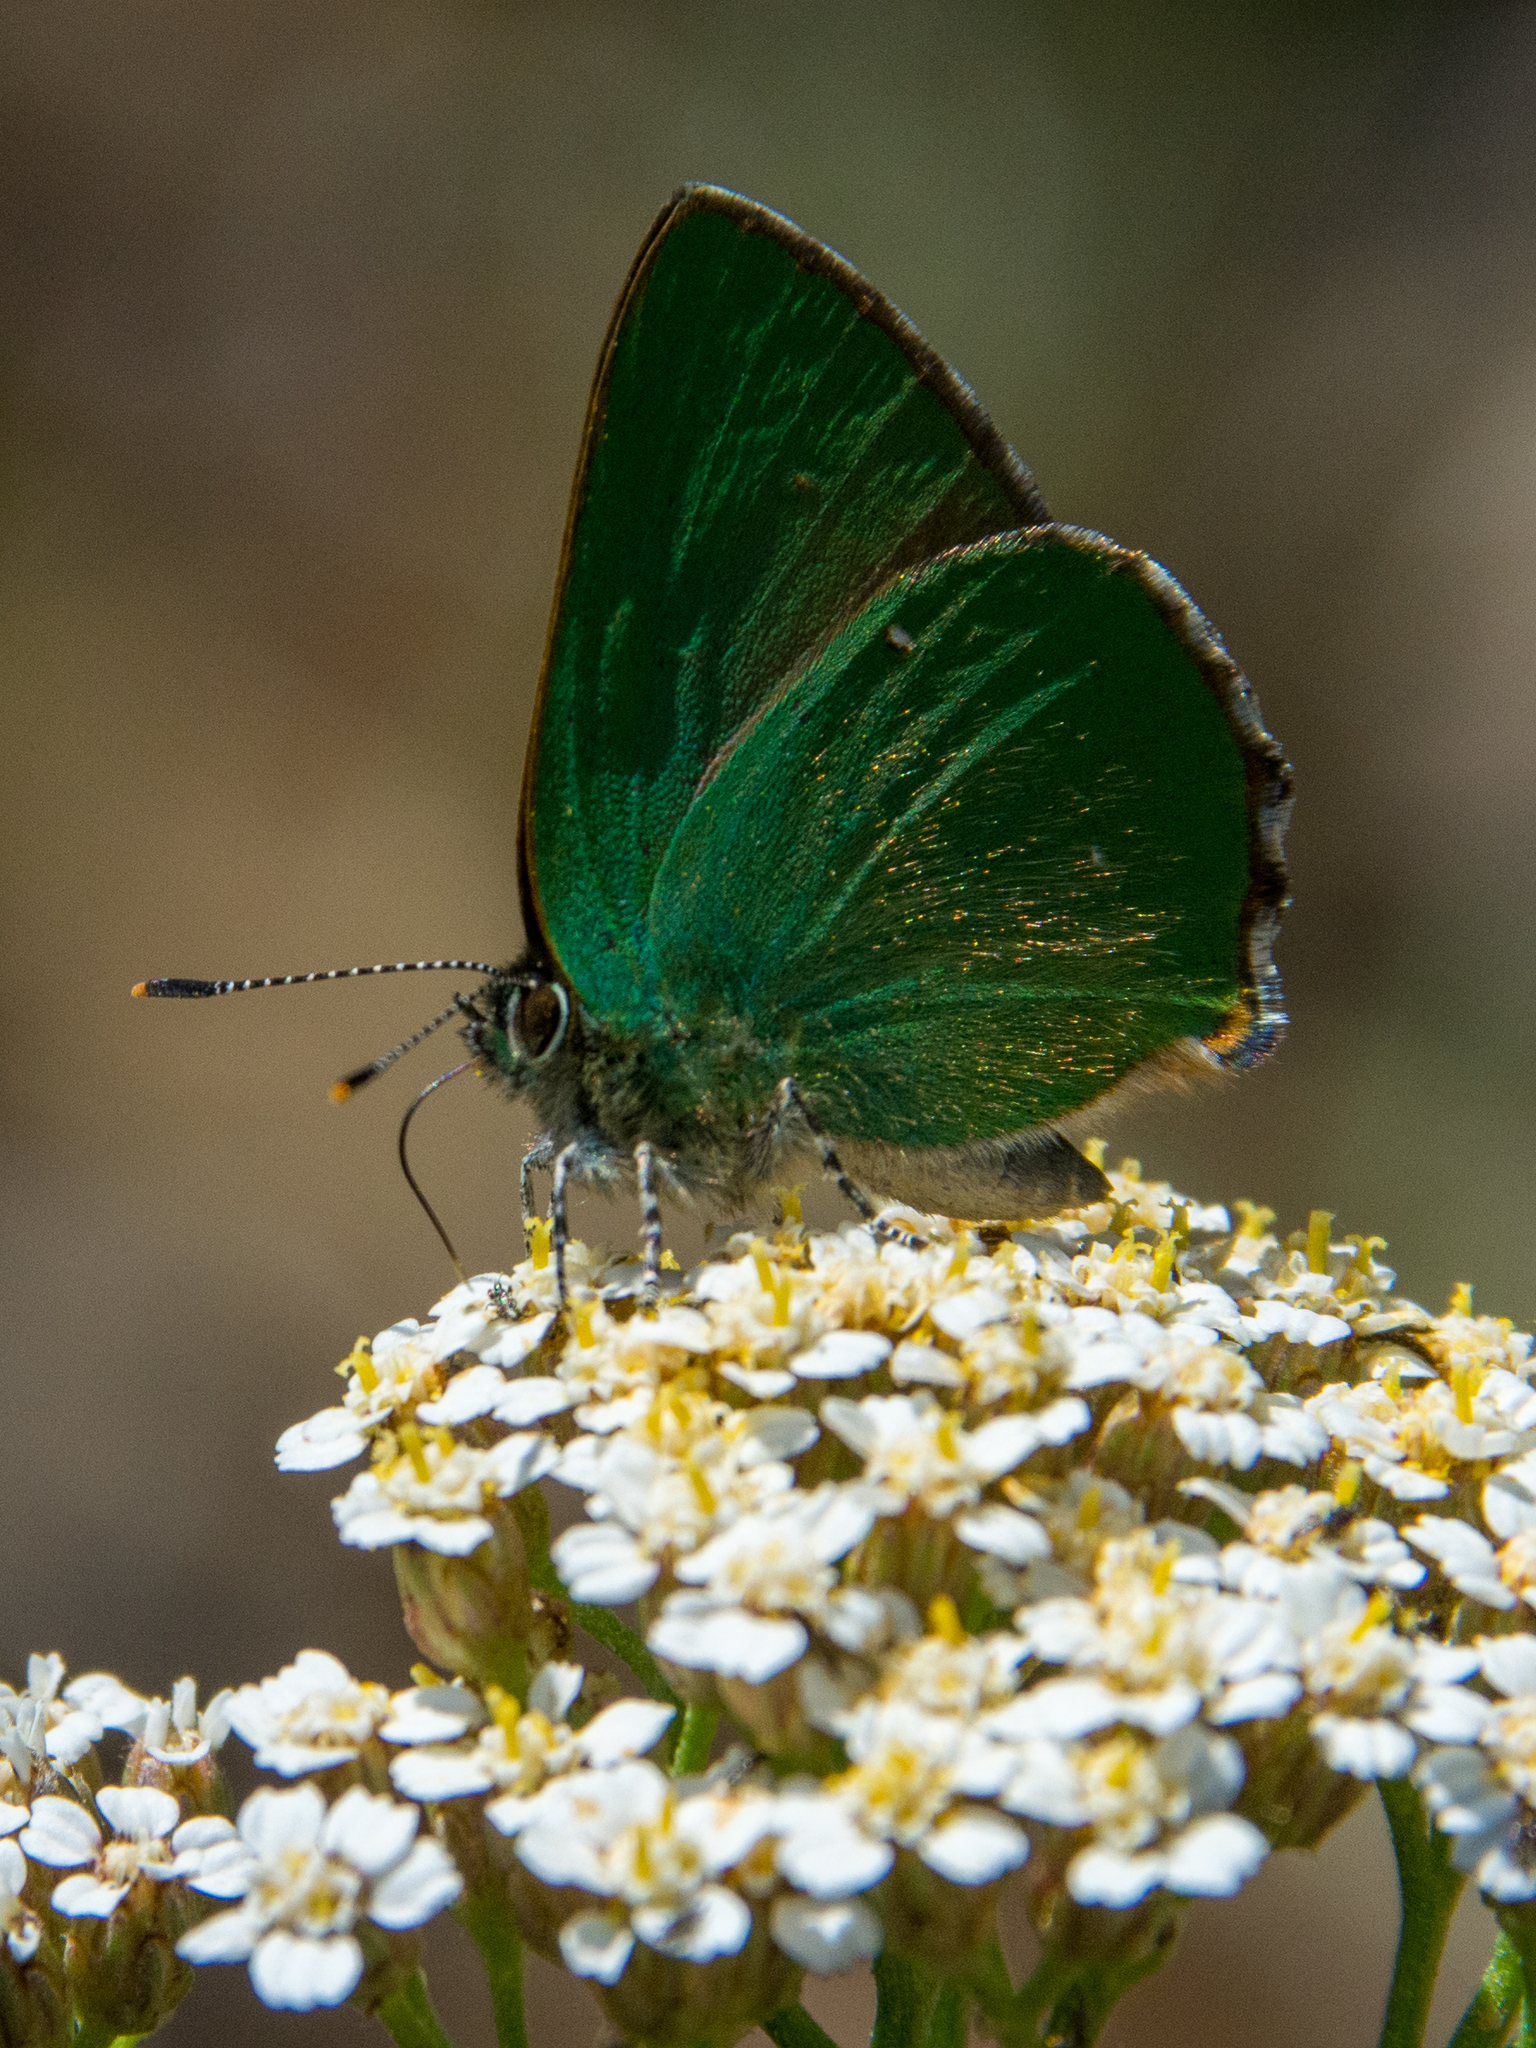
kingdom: Animalia
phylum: Arthropoda
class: Insecta
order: Lepidoptera
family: Lycaenidae
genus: Callophrys
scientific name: Callophrys rubi
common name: Green hairstreak
